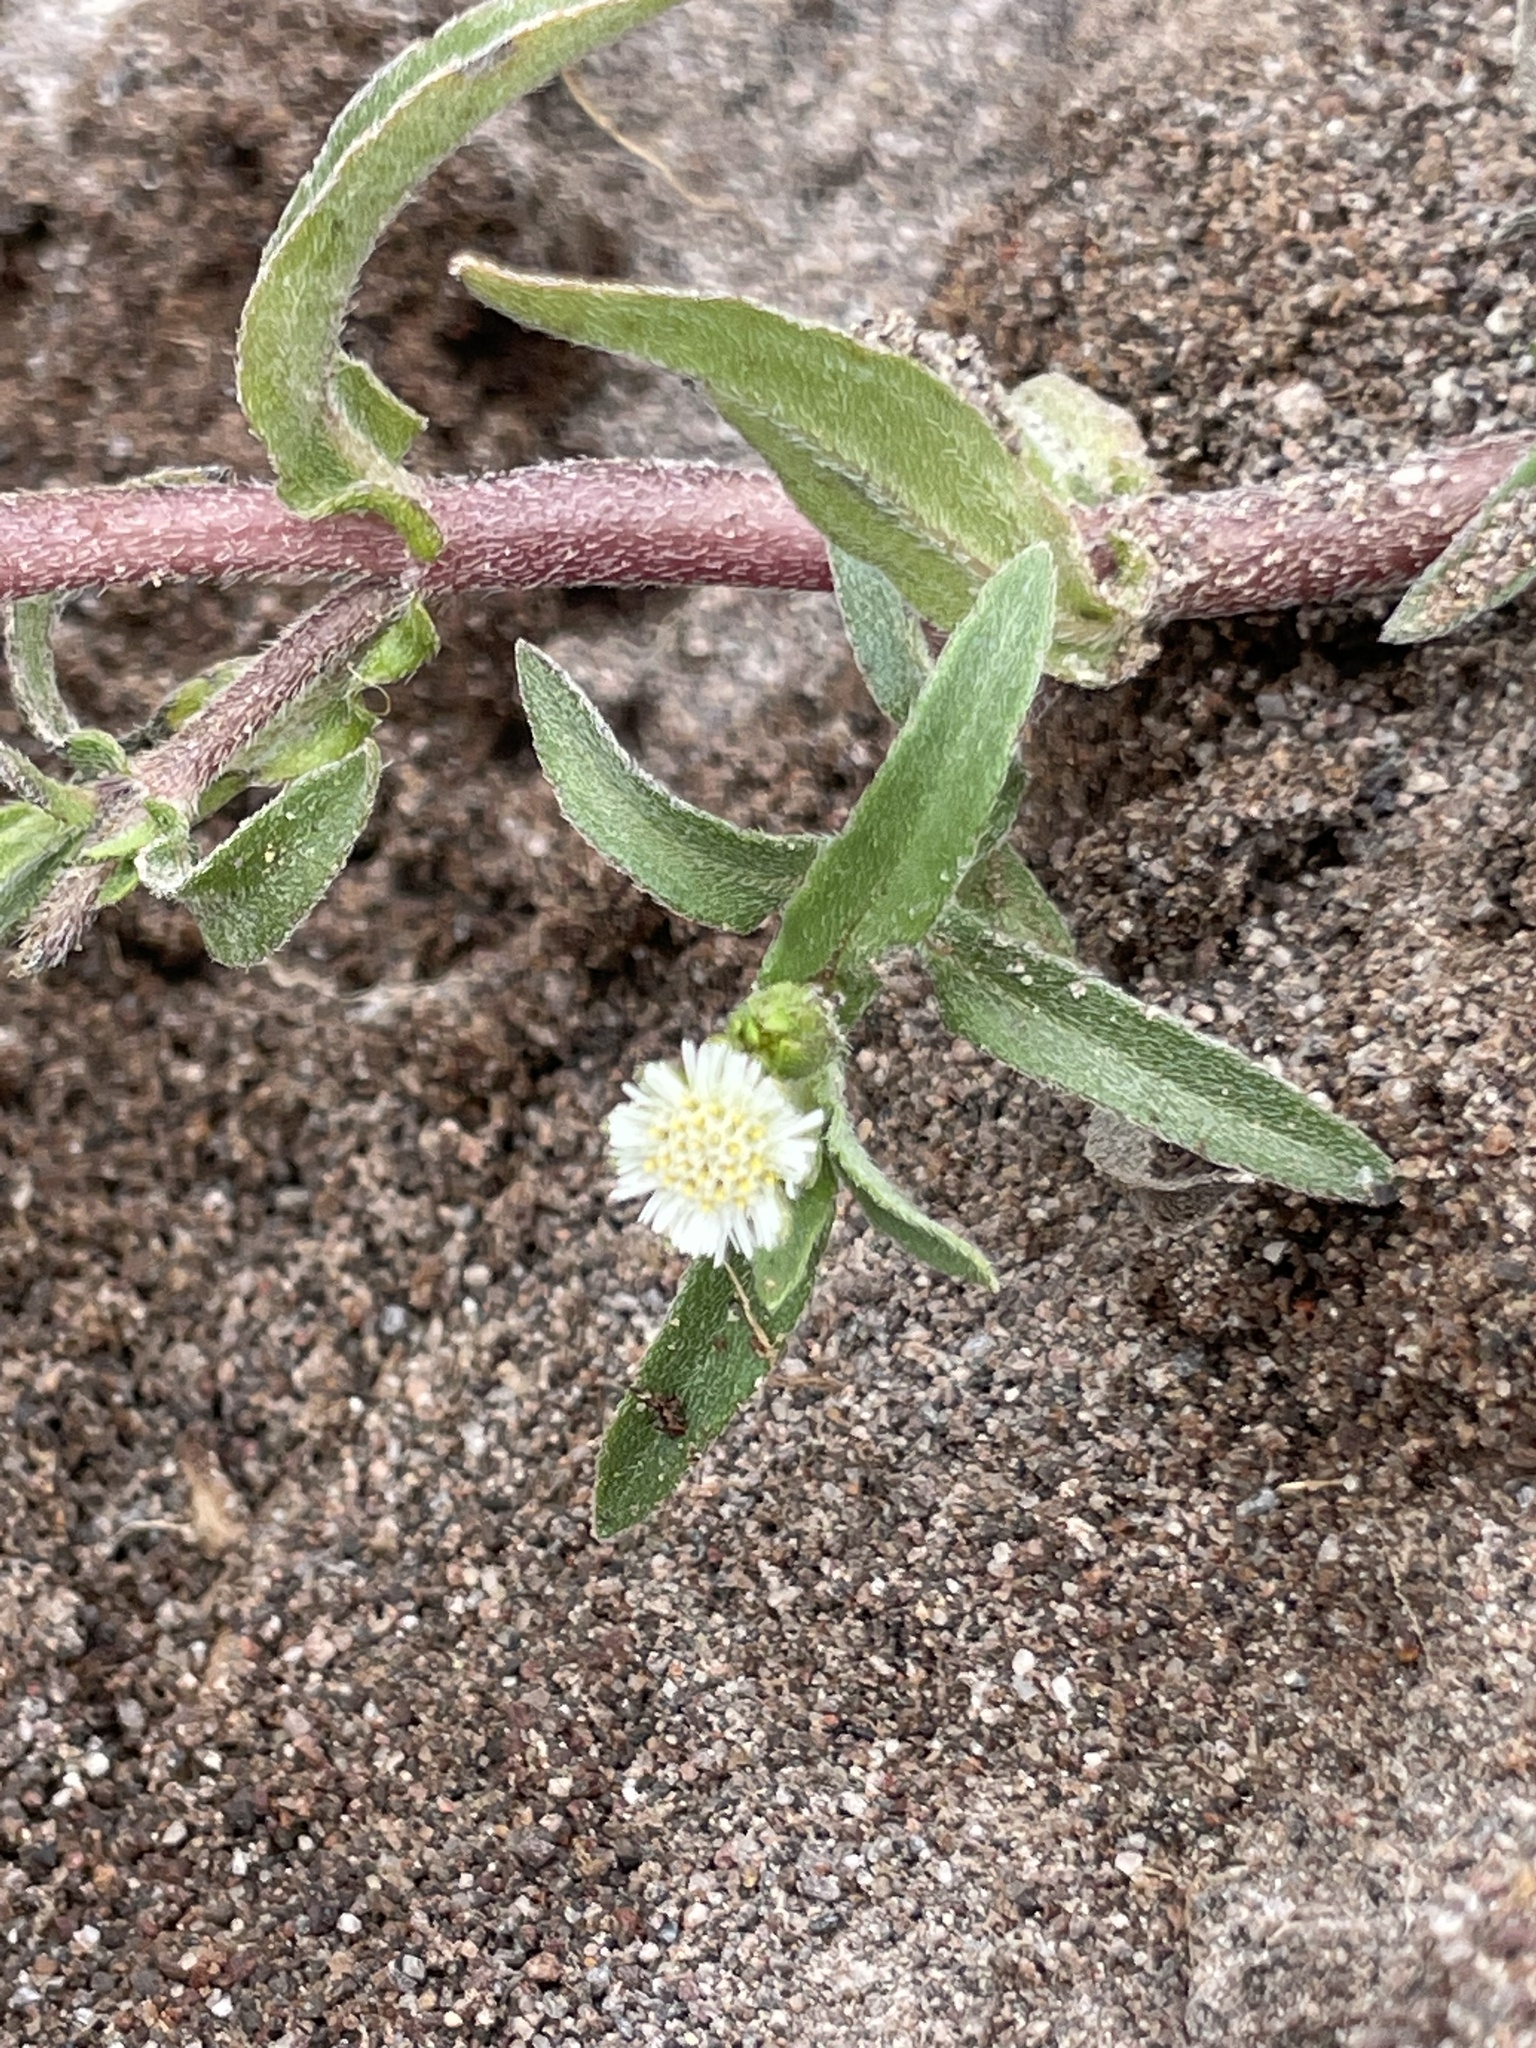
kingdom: Plantae
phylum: Tracheophyta
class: Magnoliopsida
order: Asterales
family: Asteraceae
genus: Eclipta
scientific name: Eclipta prostrata
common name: False daisy
